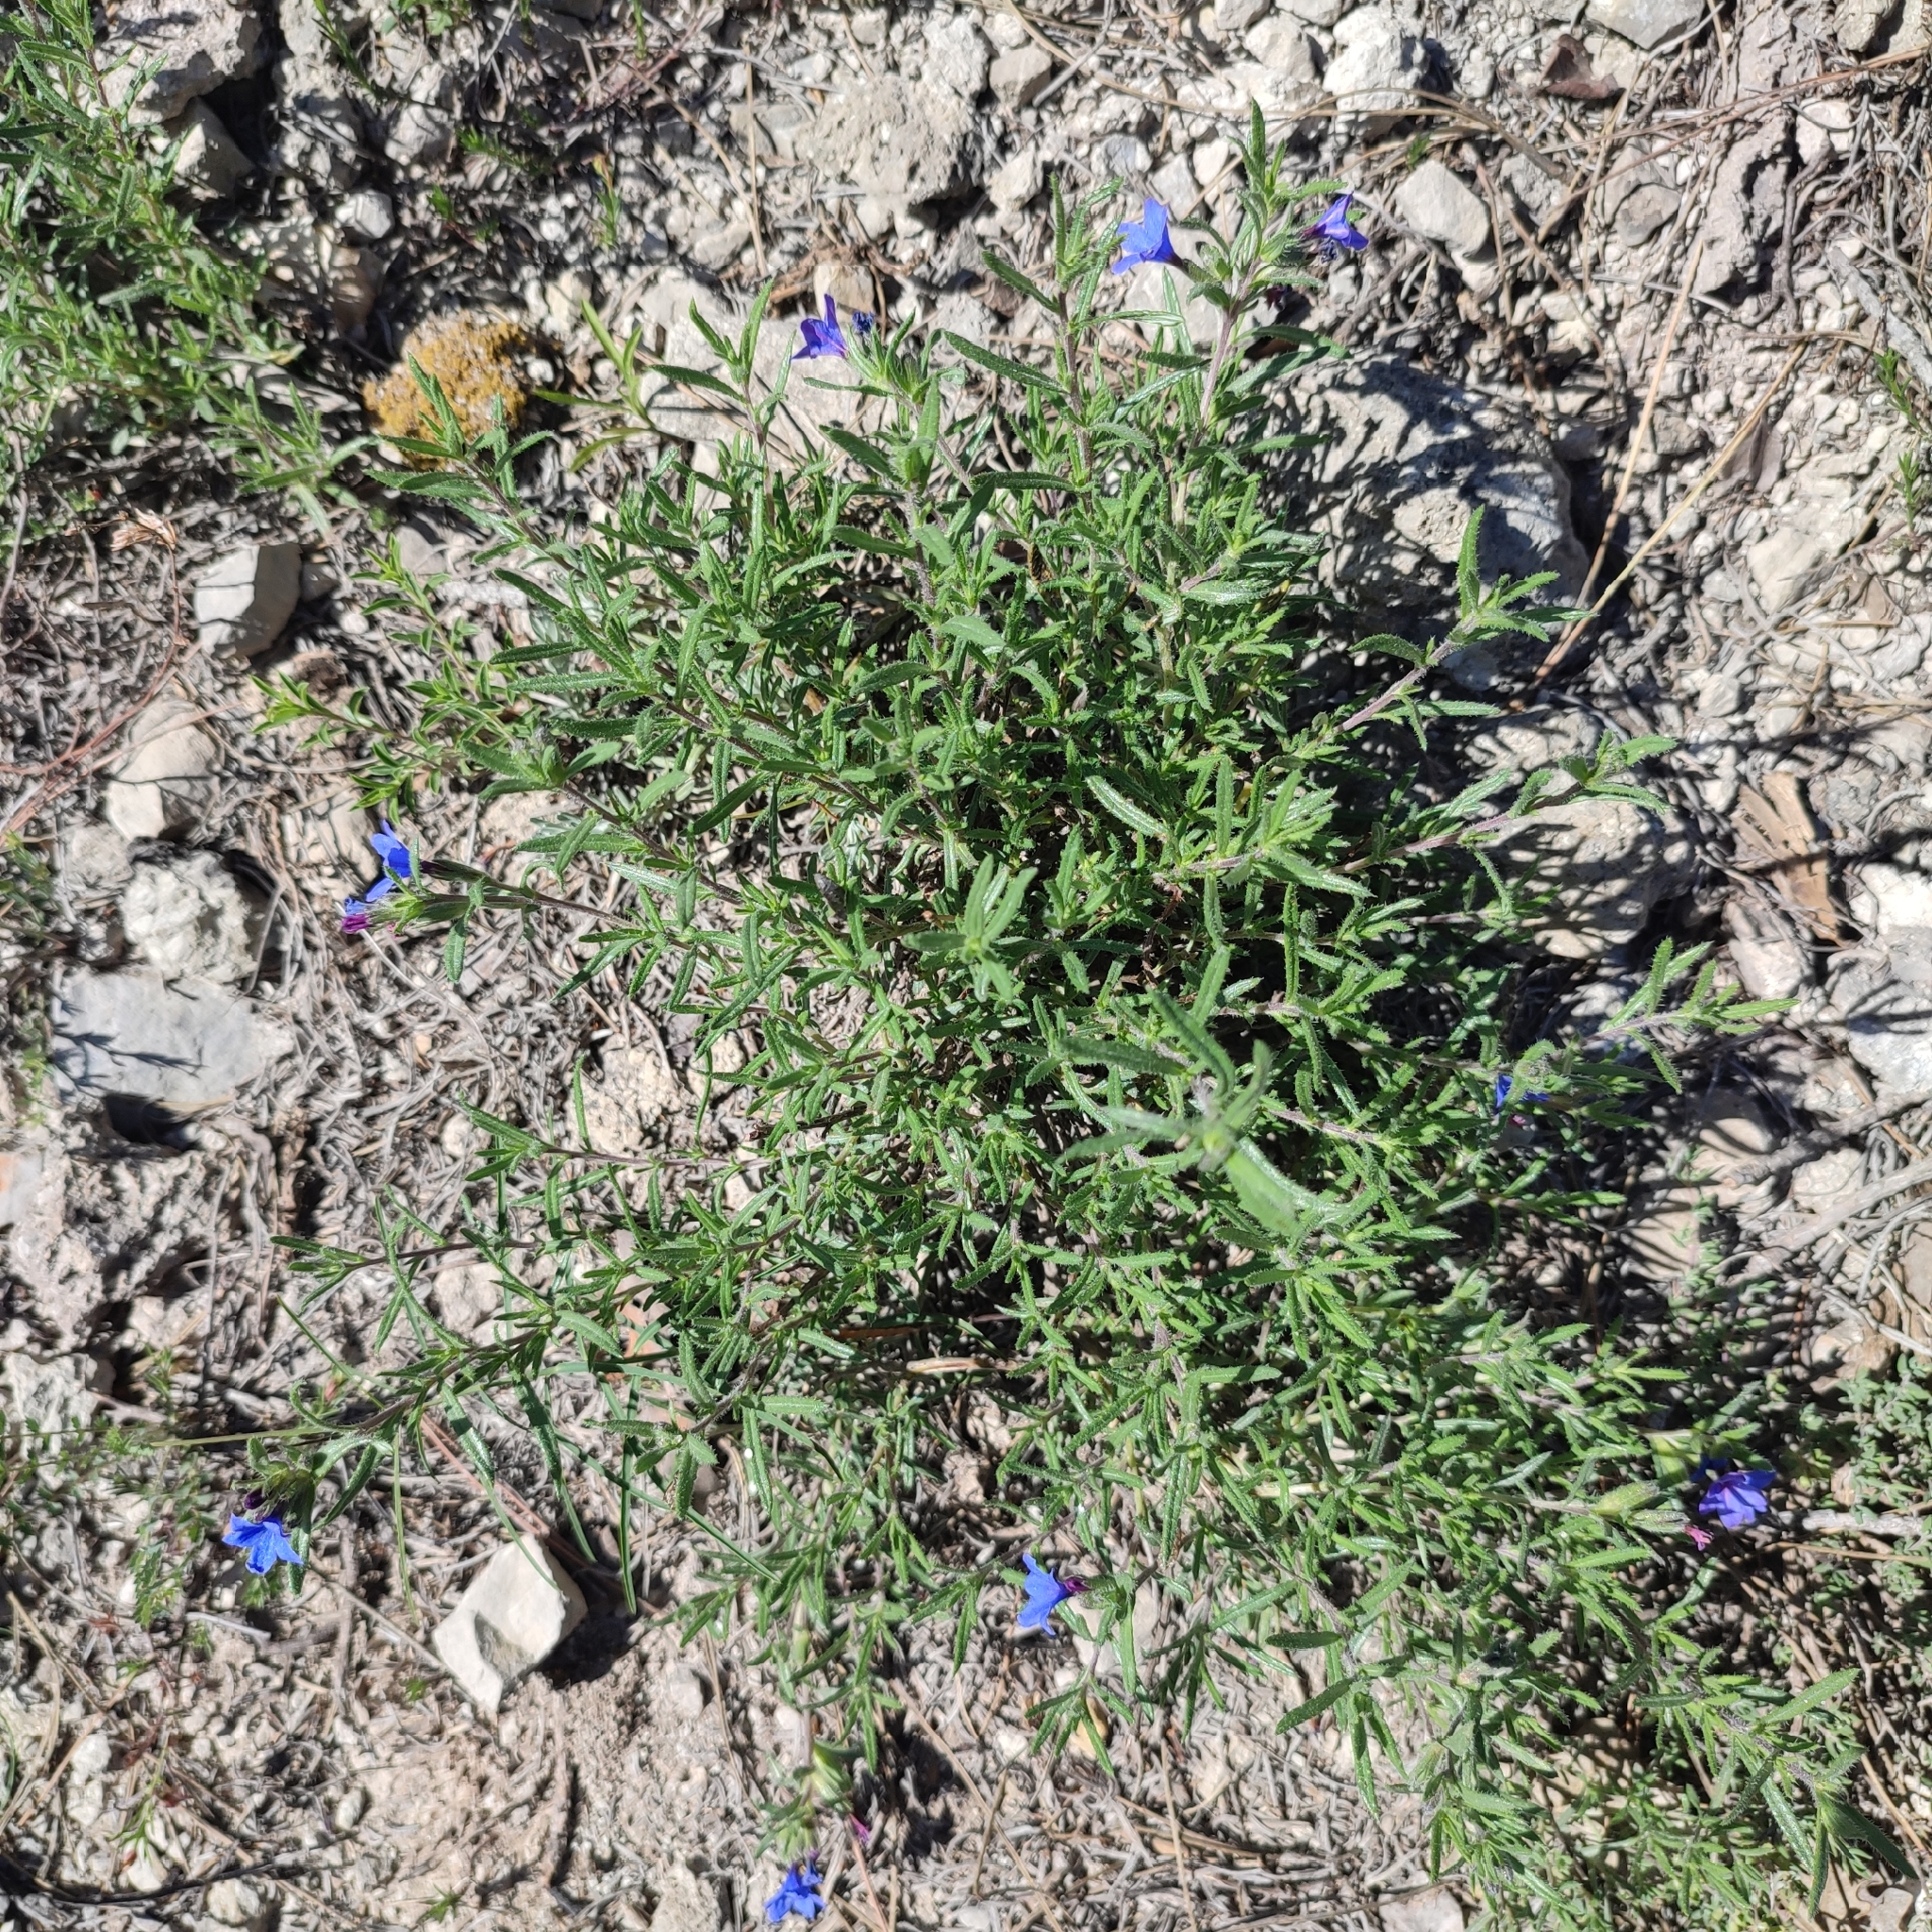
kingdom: Plantae
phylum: Tracheophyta
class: Magnoliopsida
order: Boraginales
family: Boraginaceae
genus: Lithodora
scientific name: Lithodora fruticosa
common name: Shrubby gromwell
